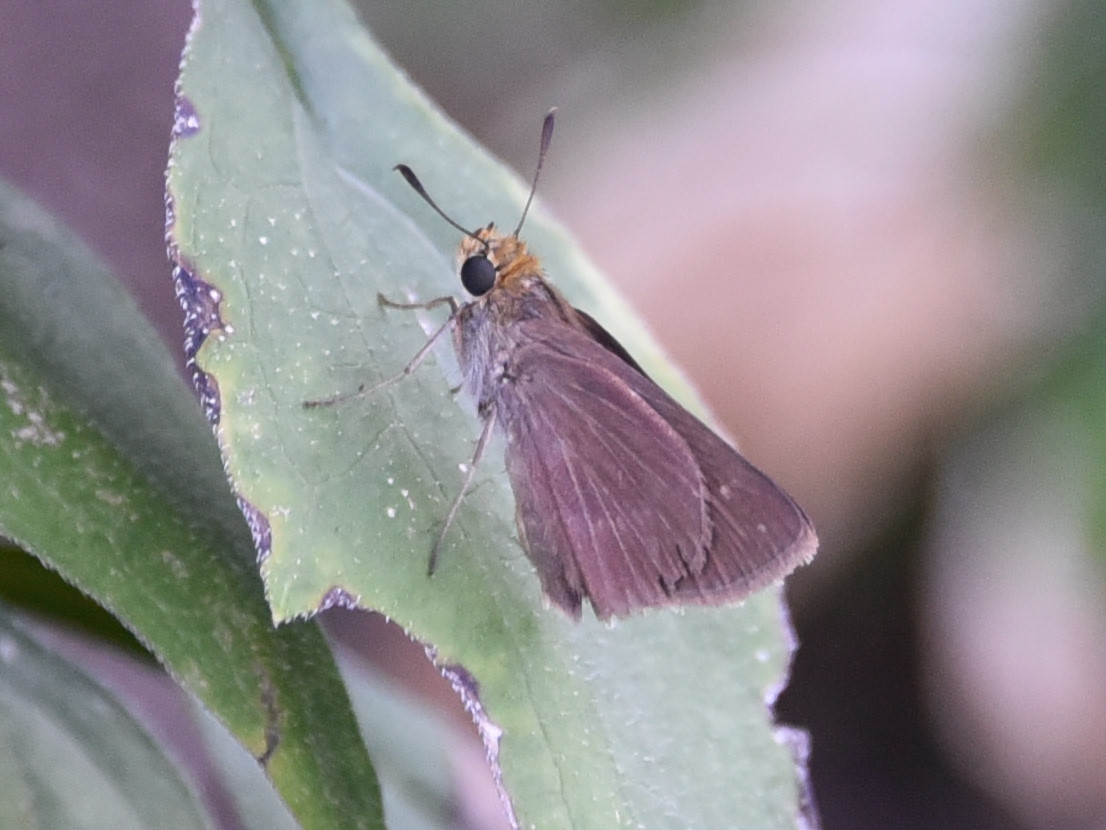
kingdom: Animalia
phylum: Arthropoda
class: Insecta
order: Lepidoptera
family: Hesperiidae
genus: Euphyes
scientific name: Euphyes vestris
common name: Dun skipper
